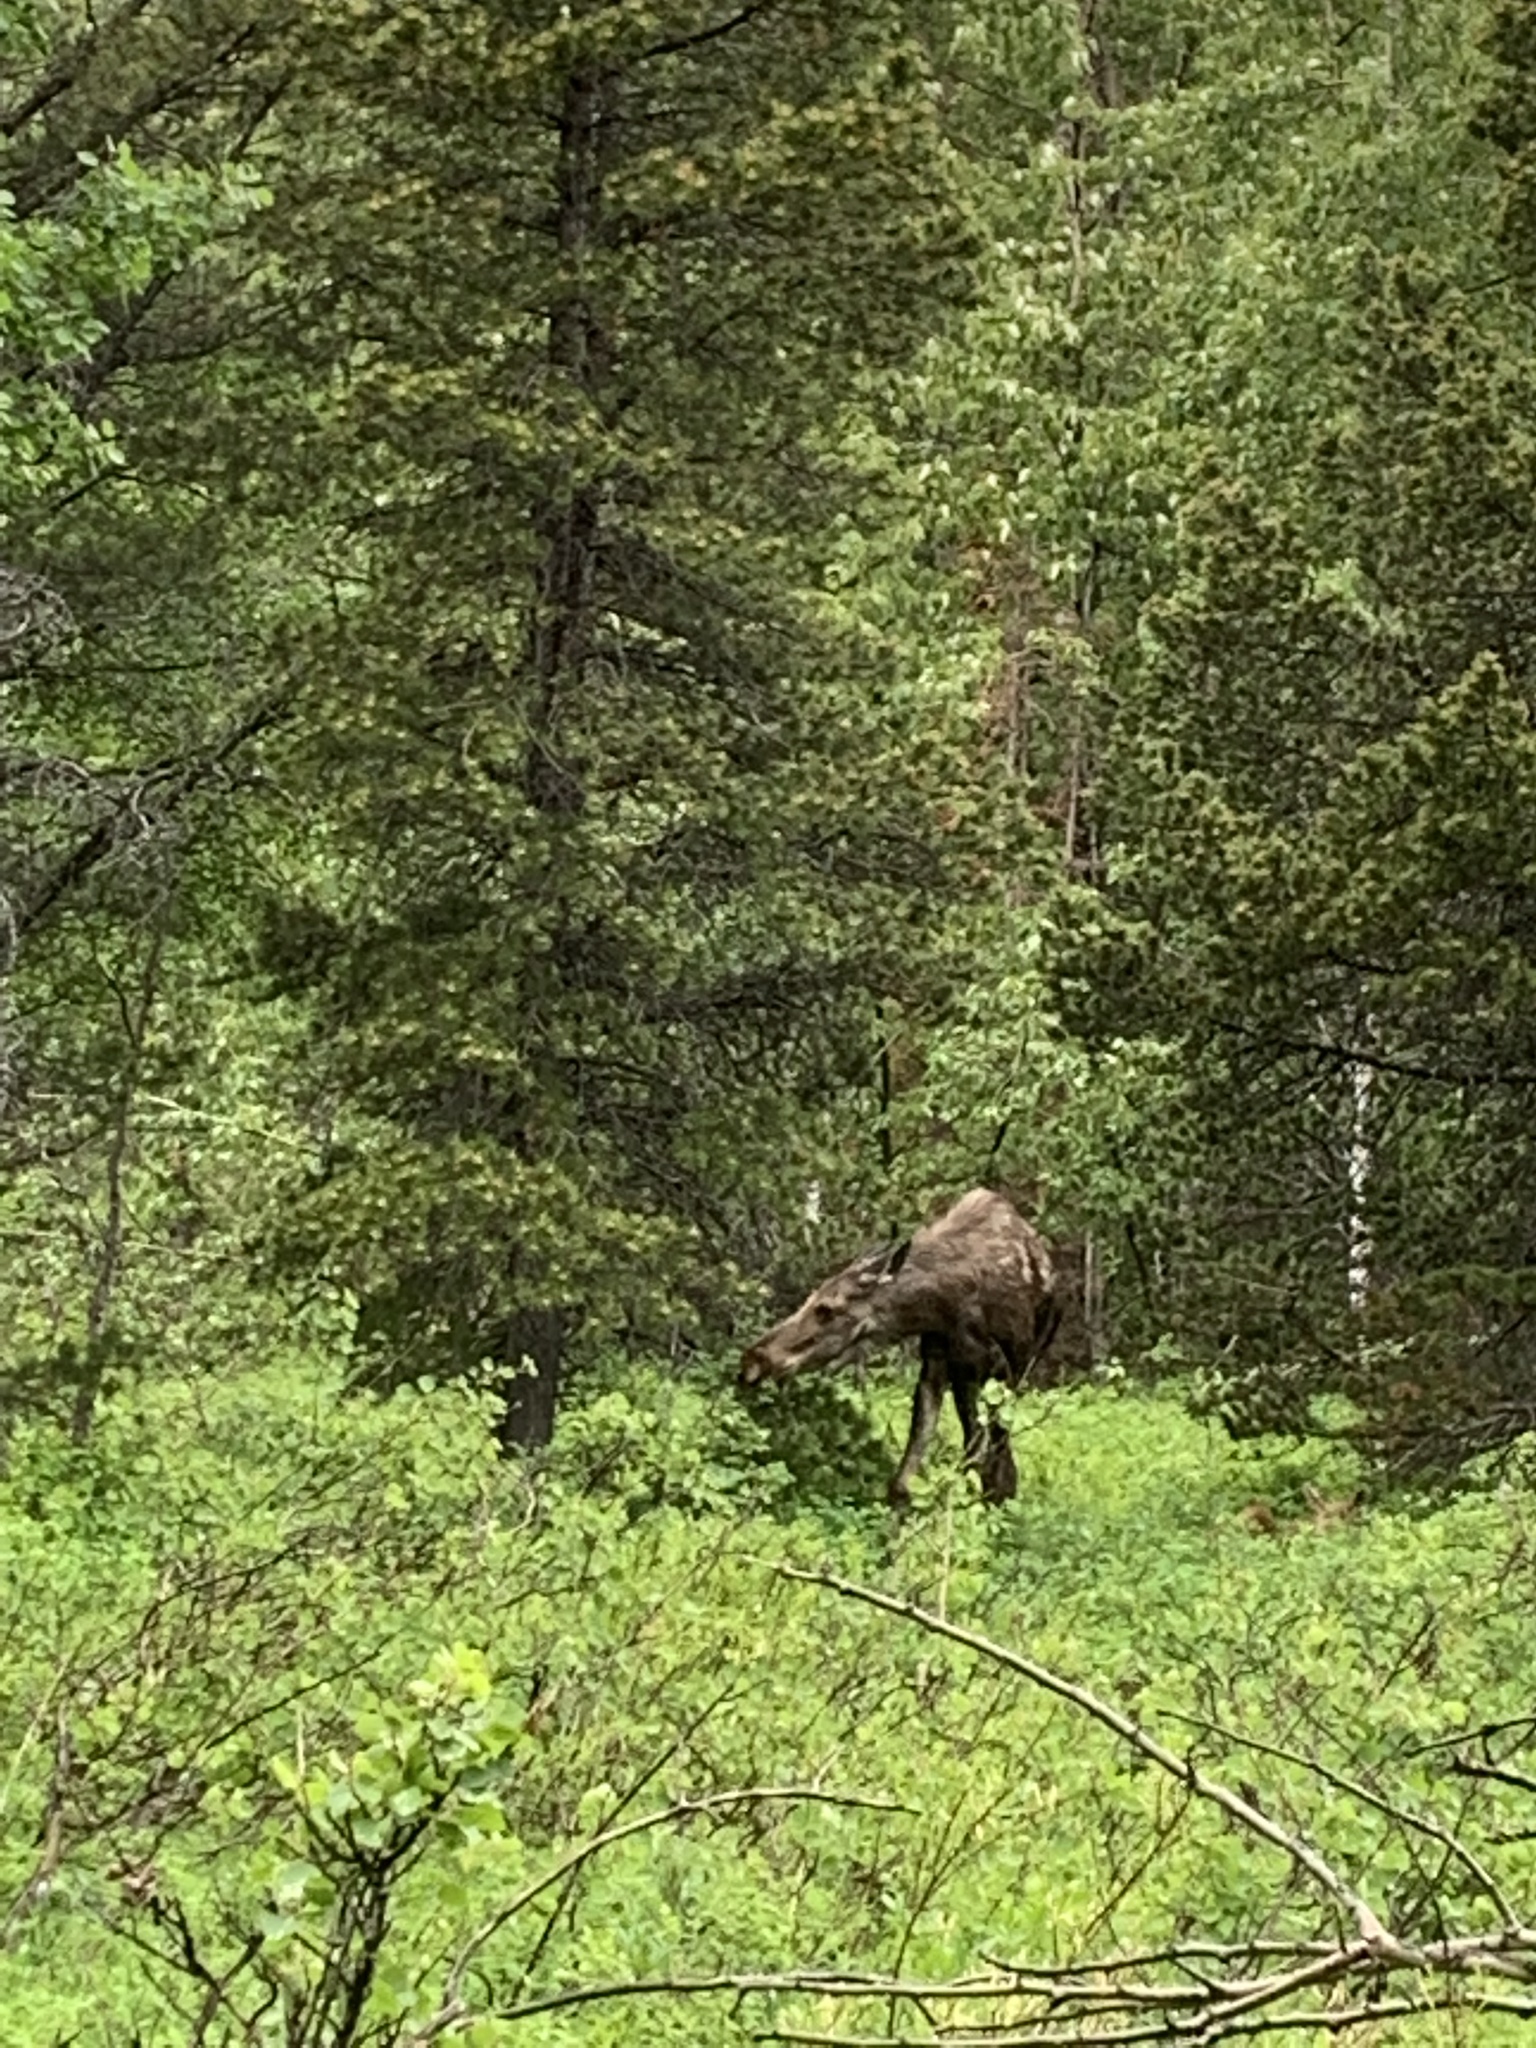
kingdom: Animalia
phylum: Chordata
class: Mammalia
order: Artiodactyla
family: Cervidae
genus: Alces
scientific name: Alces alces
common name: Moose
